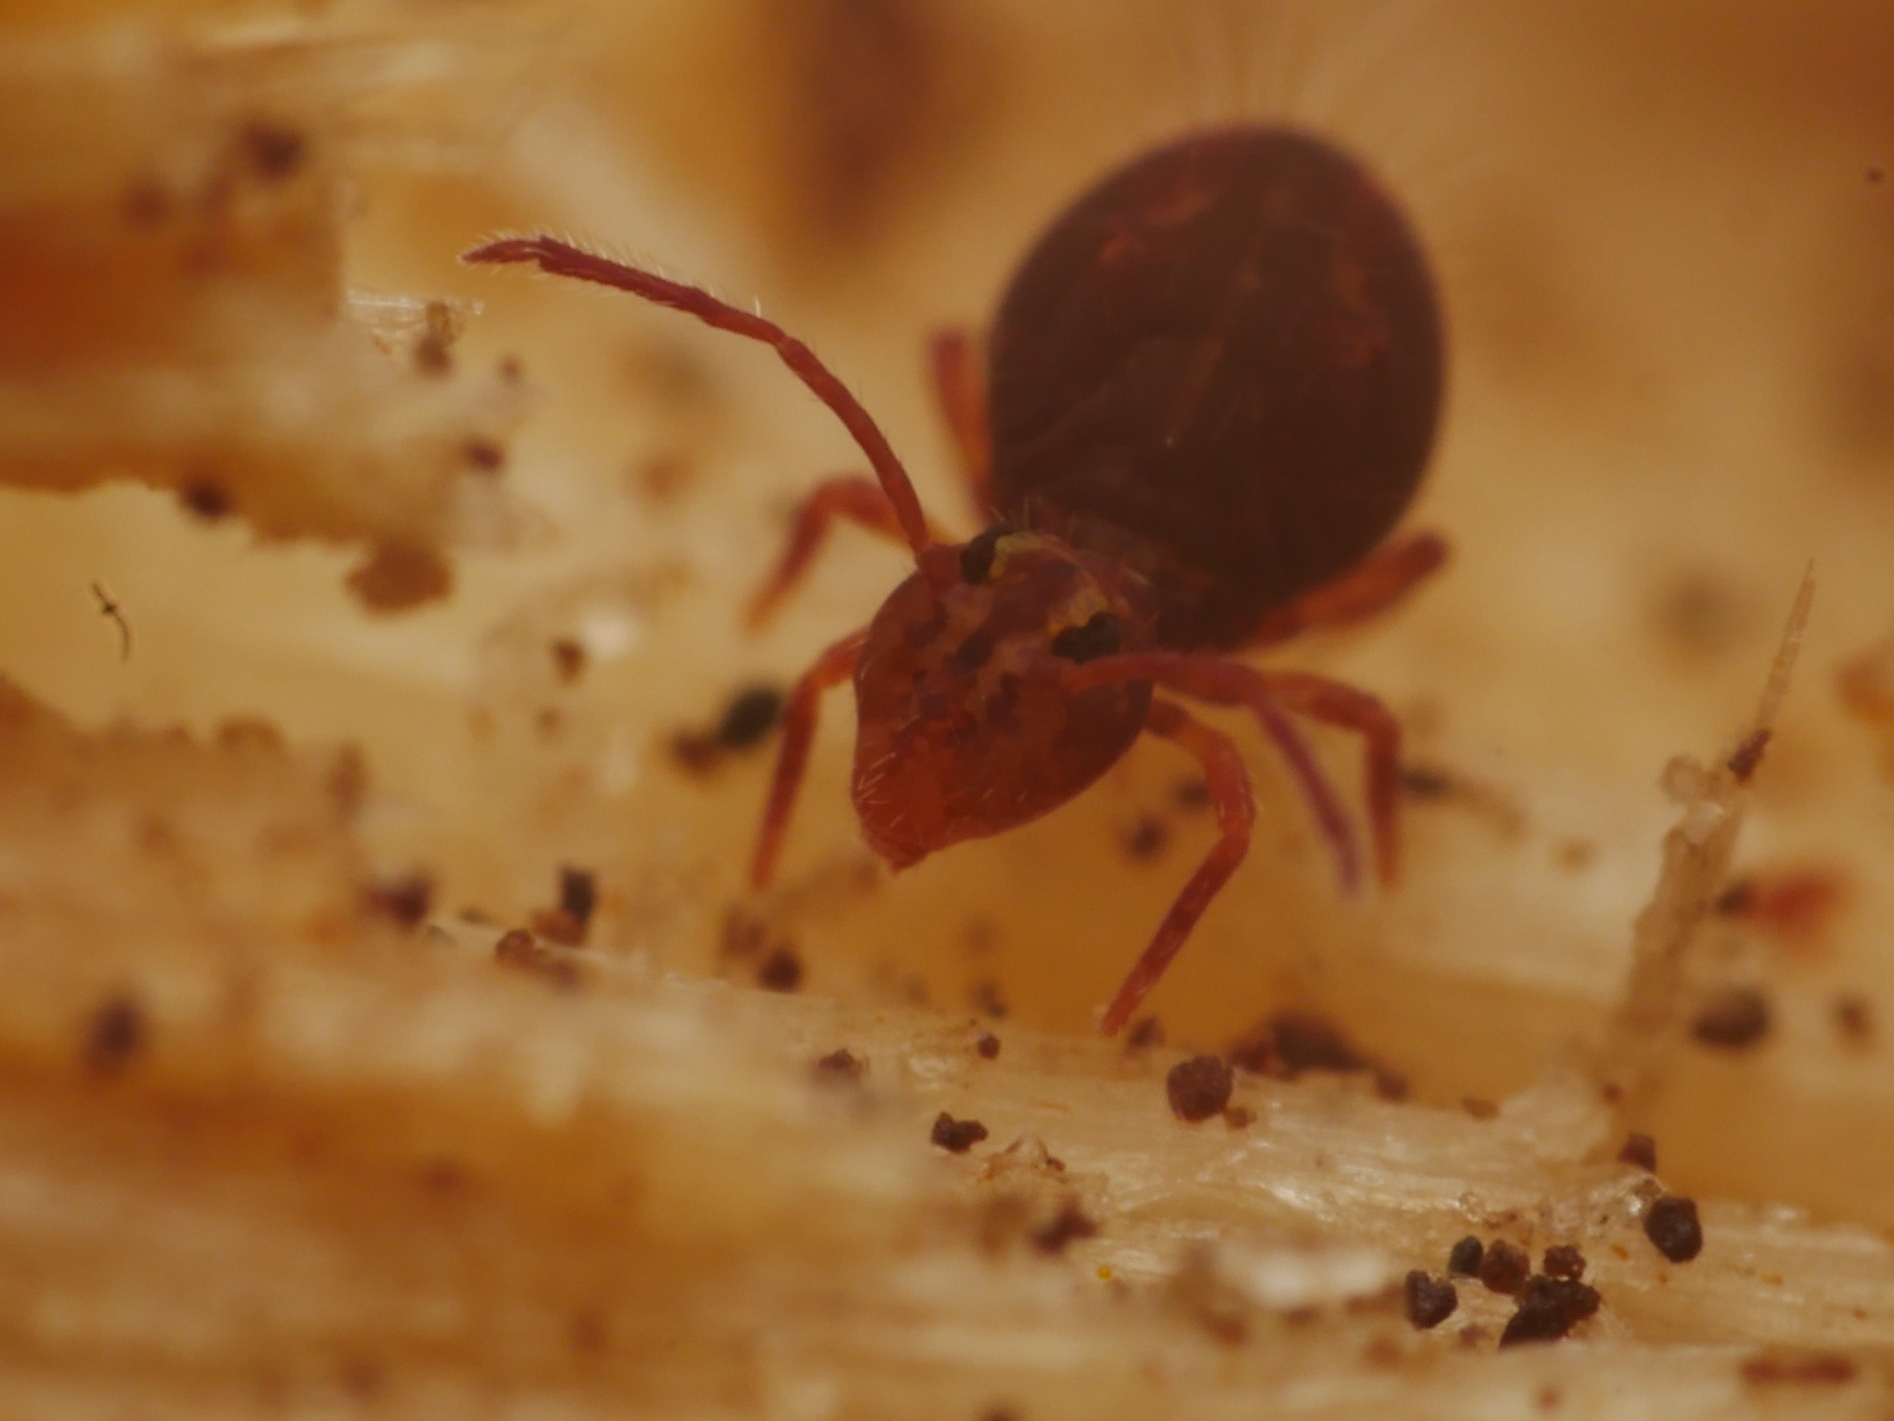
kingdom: Animalia
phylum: Arthropoda
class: Collembola
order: Symphypleona
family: Dicyrtomidae
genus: Dicyrtomina
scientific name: Dicyrtomina ornata
